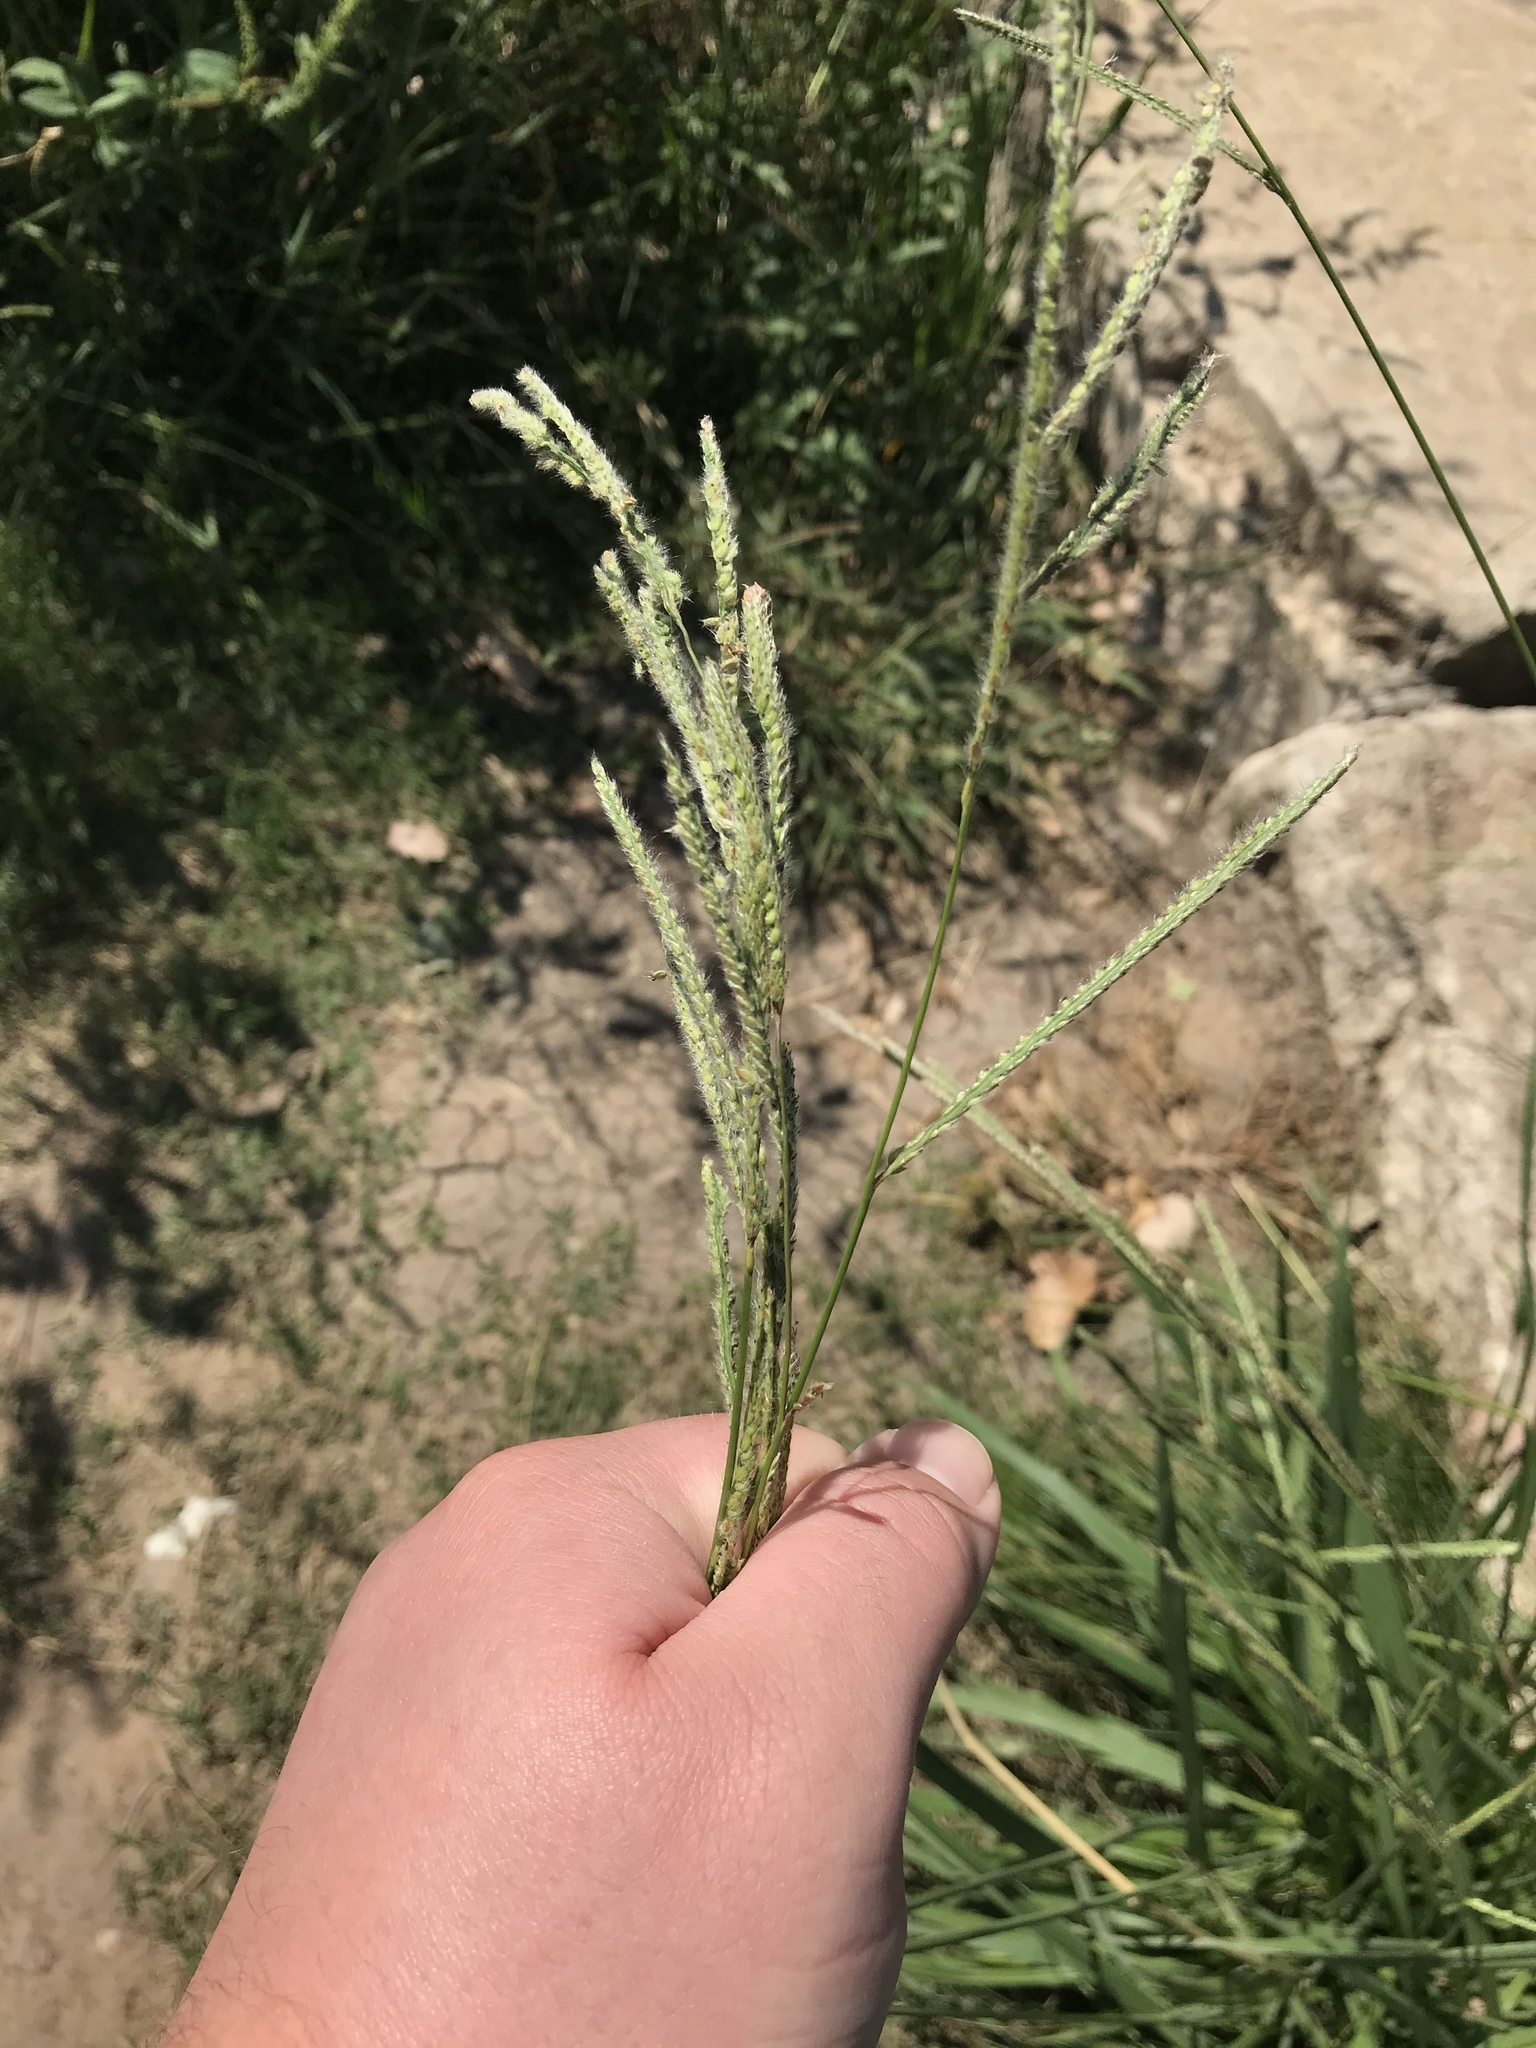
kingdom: Plantae
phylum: Tracheophyta
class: Liliopsida
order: Poales
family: Poaceae
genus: Paspalum
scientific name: Paspalum urvillei
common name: Vasey's grass
